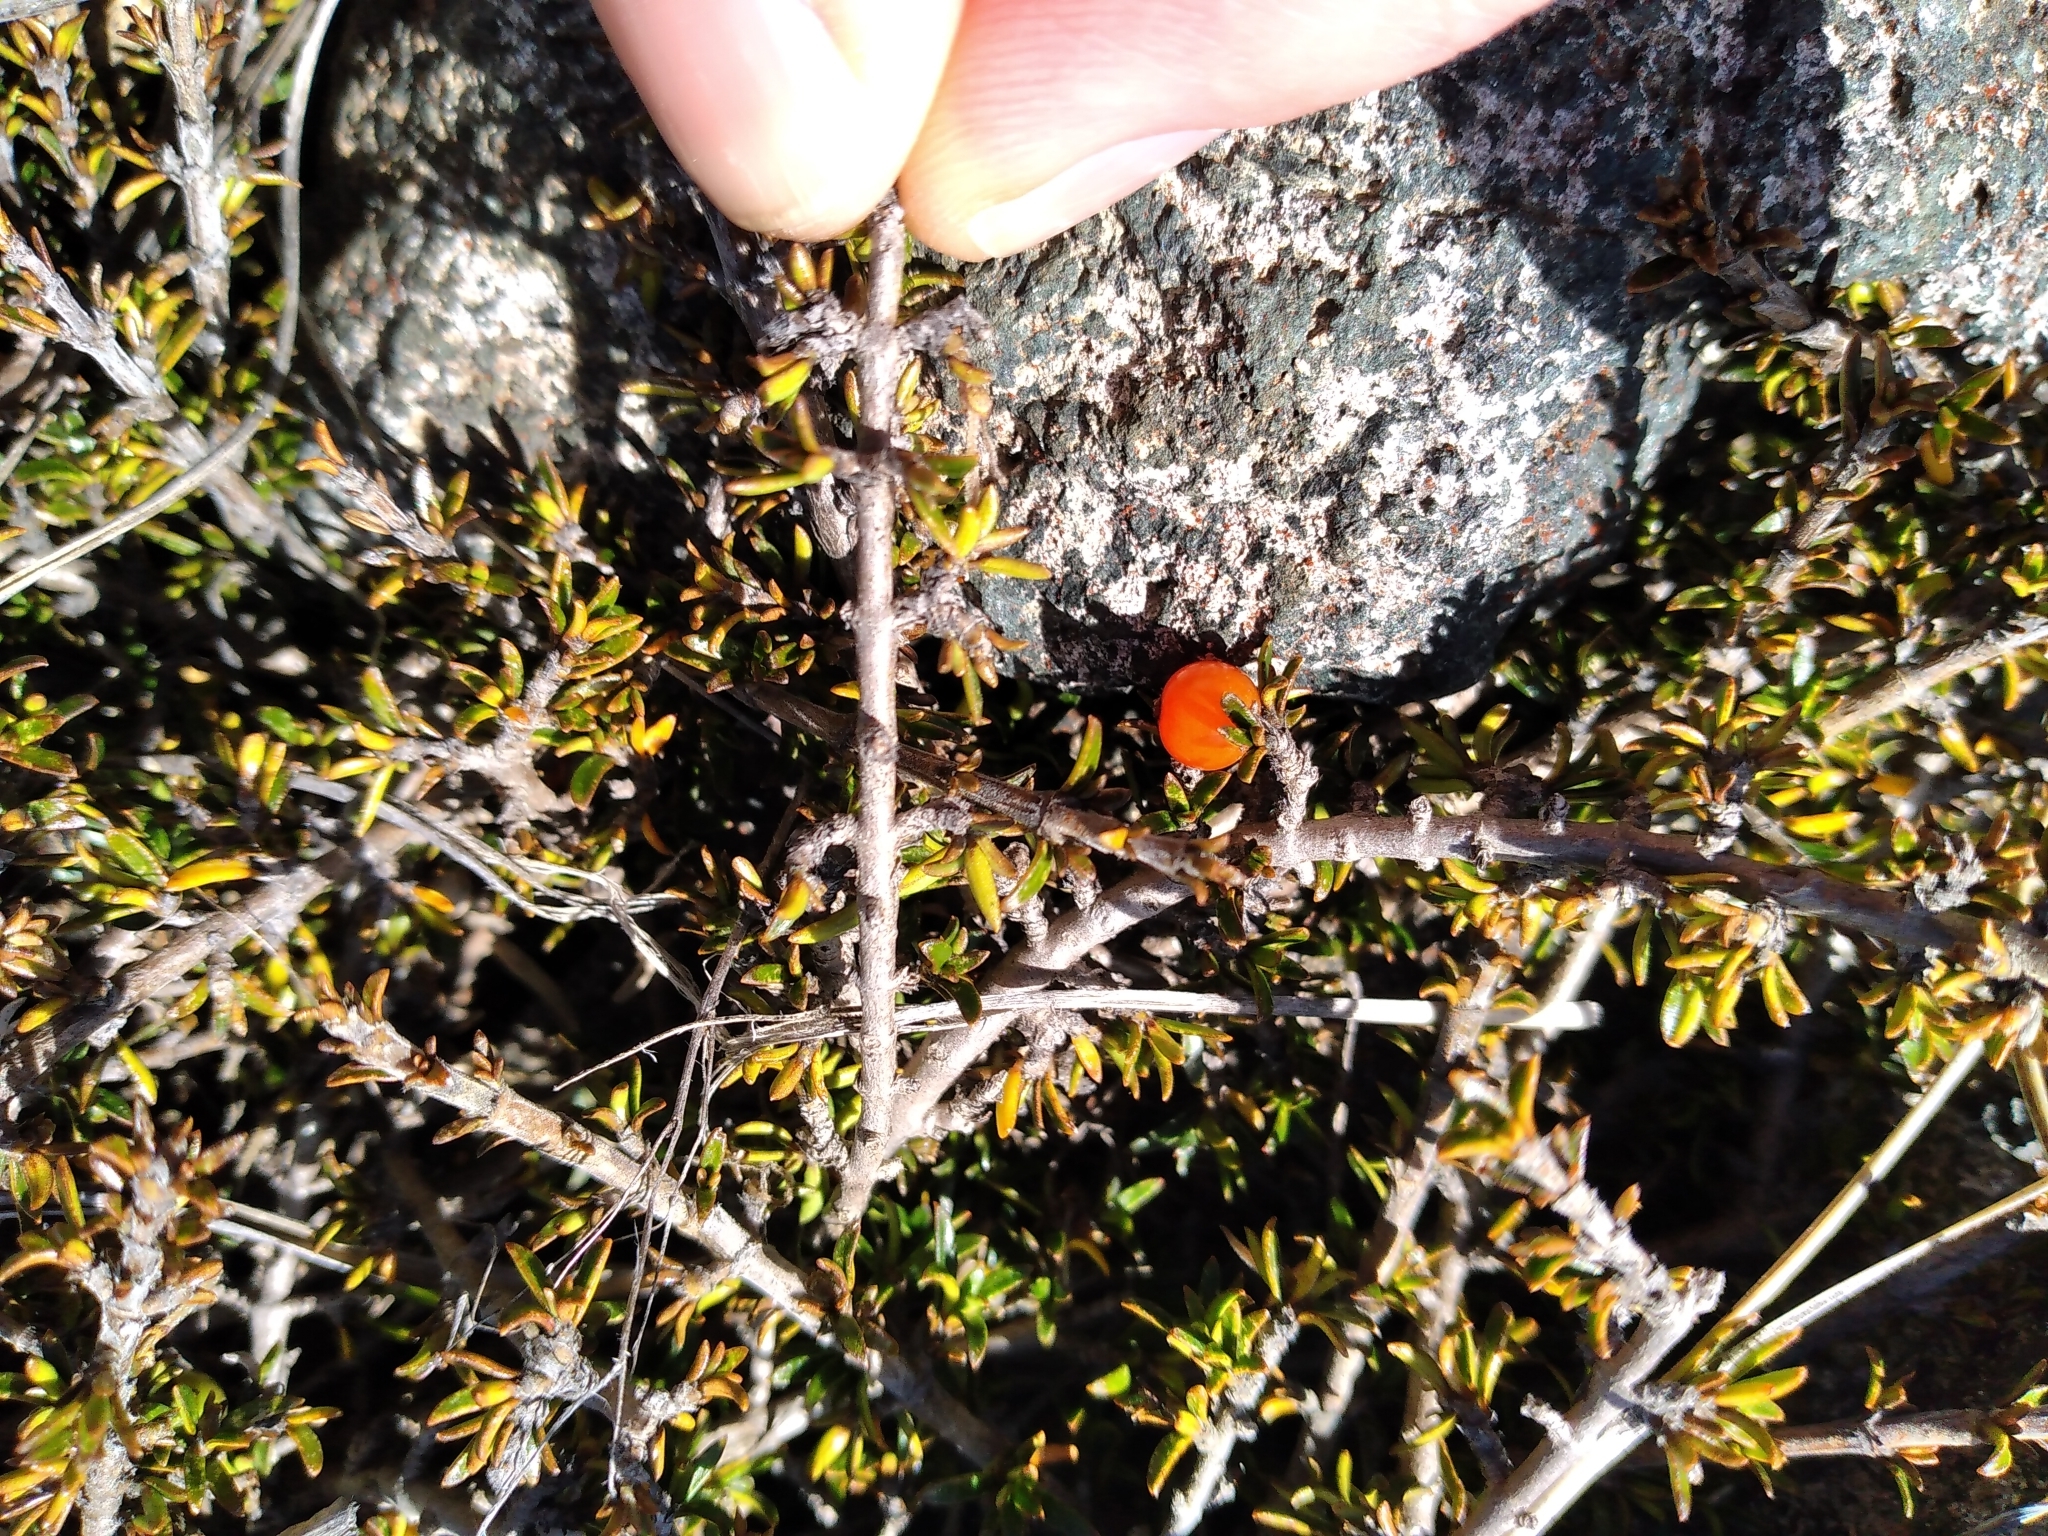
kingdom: Plantae
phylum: Tracheophyta
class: Magnoliopsida
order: Gentianales
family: Rubiaceae
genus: Coprosma
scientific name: Coprosma cheesemanii
